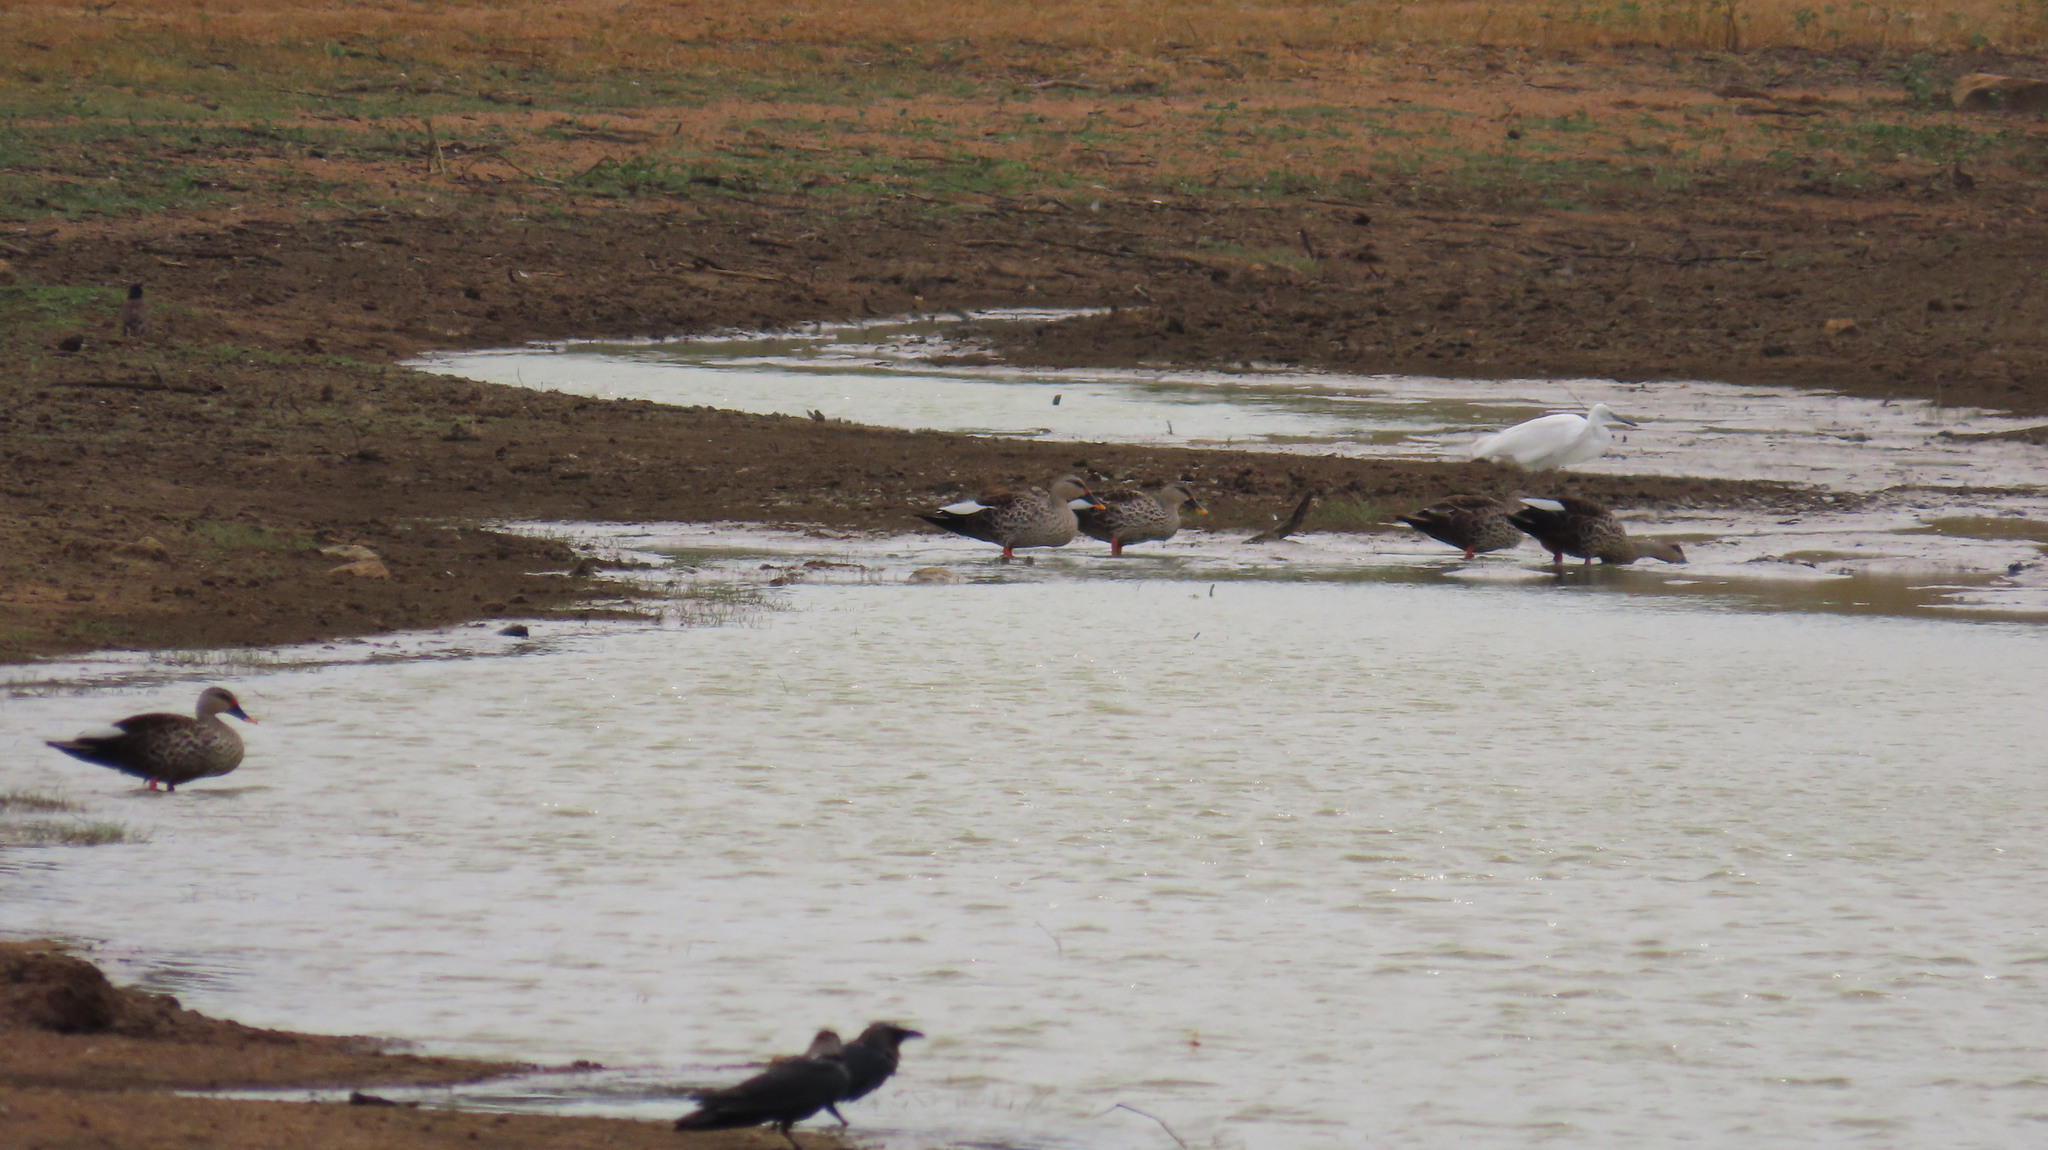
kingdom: Animalia
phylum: Chordata
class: Aves
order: Anseriformes
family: Anatidae
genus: Anas
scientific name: Anas poecilorhyncha
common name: Indian spot-billed duck
